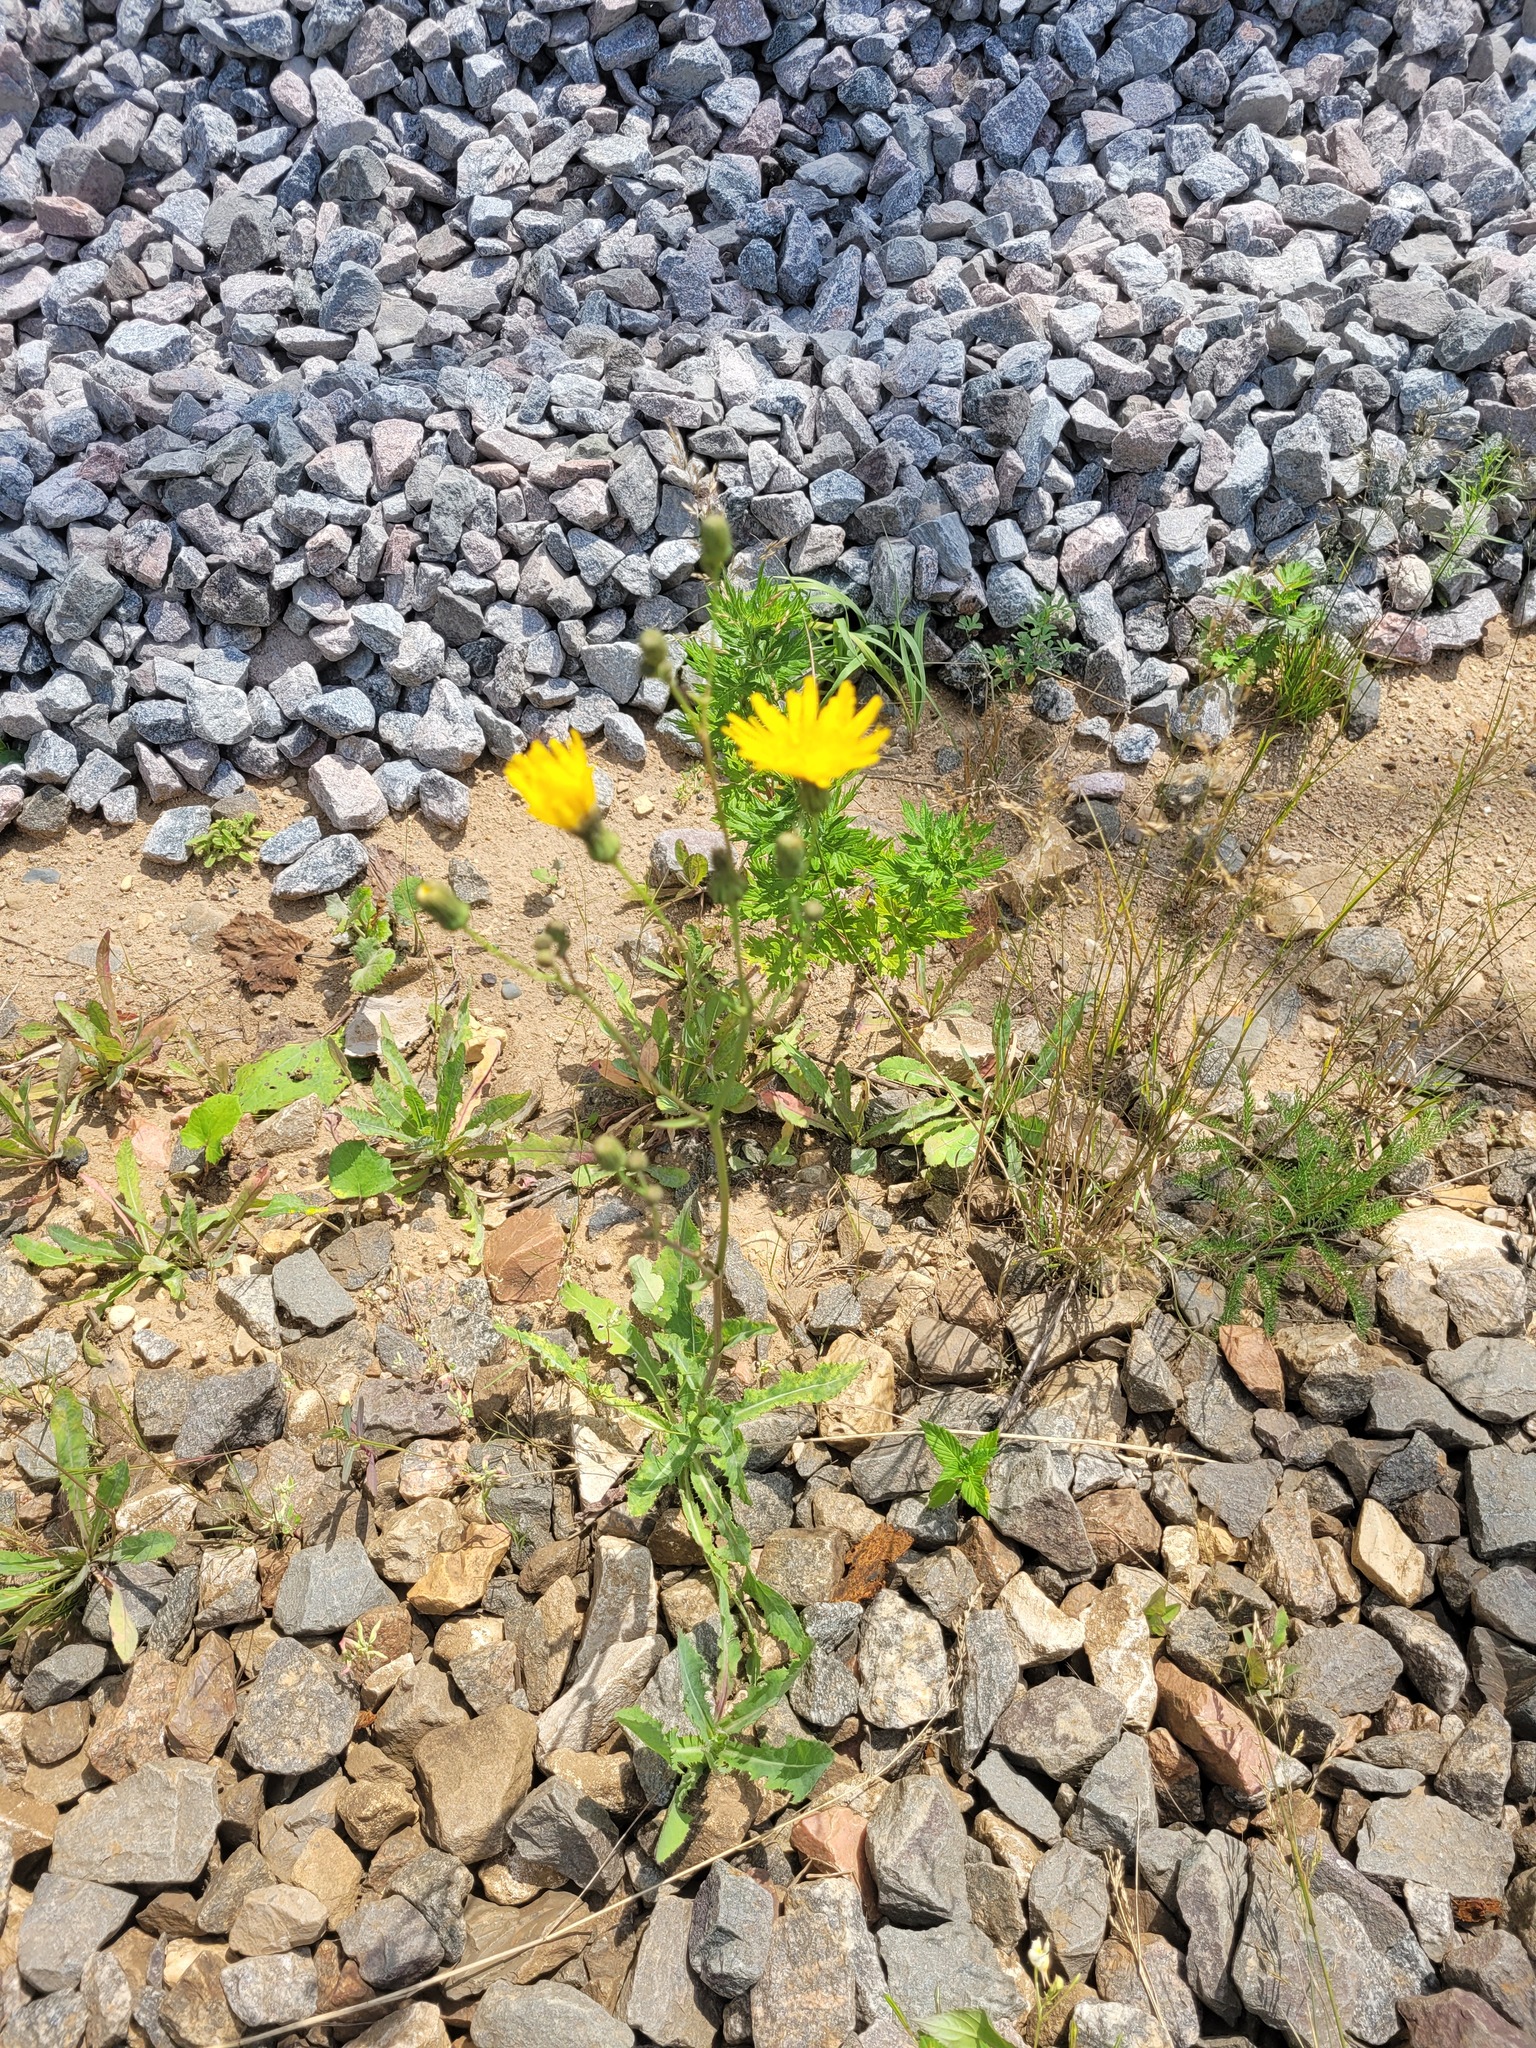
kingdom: Plantae
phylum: Tracheophyta
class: Magnoliopsida
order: Asterales
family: Asteraceae
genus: Sonchus
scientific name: Sonchus arvensis
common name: Perennial sow-thistle
